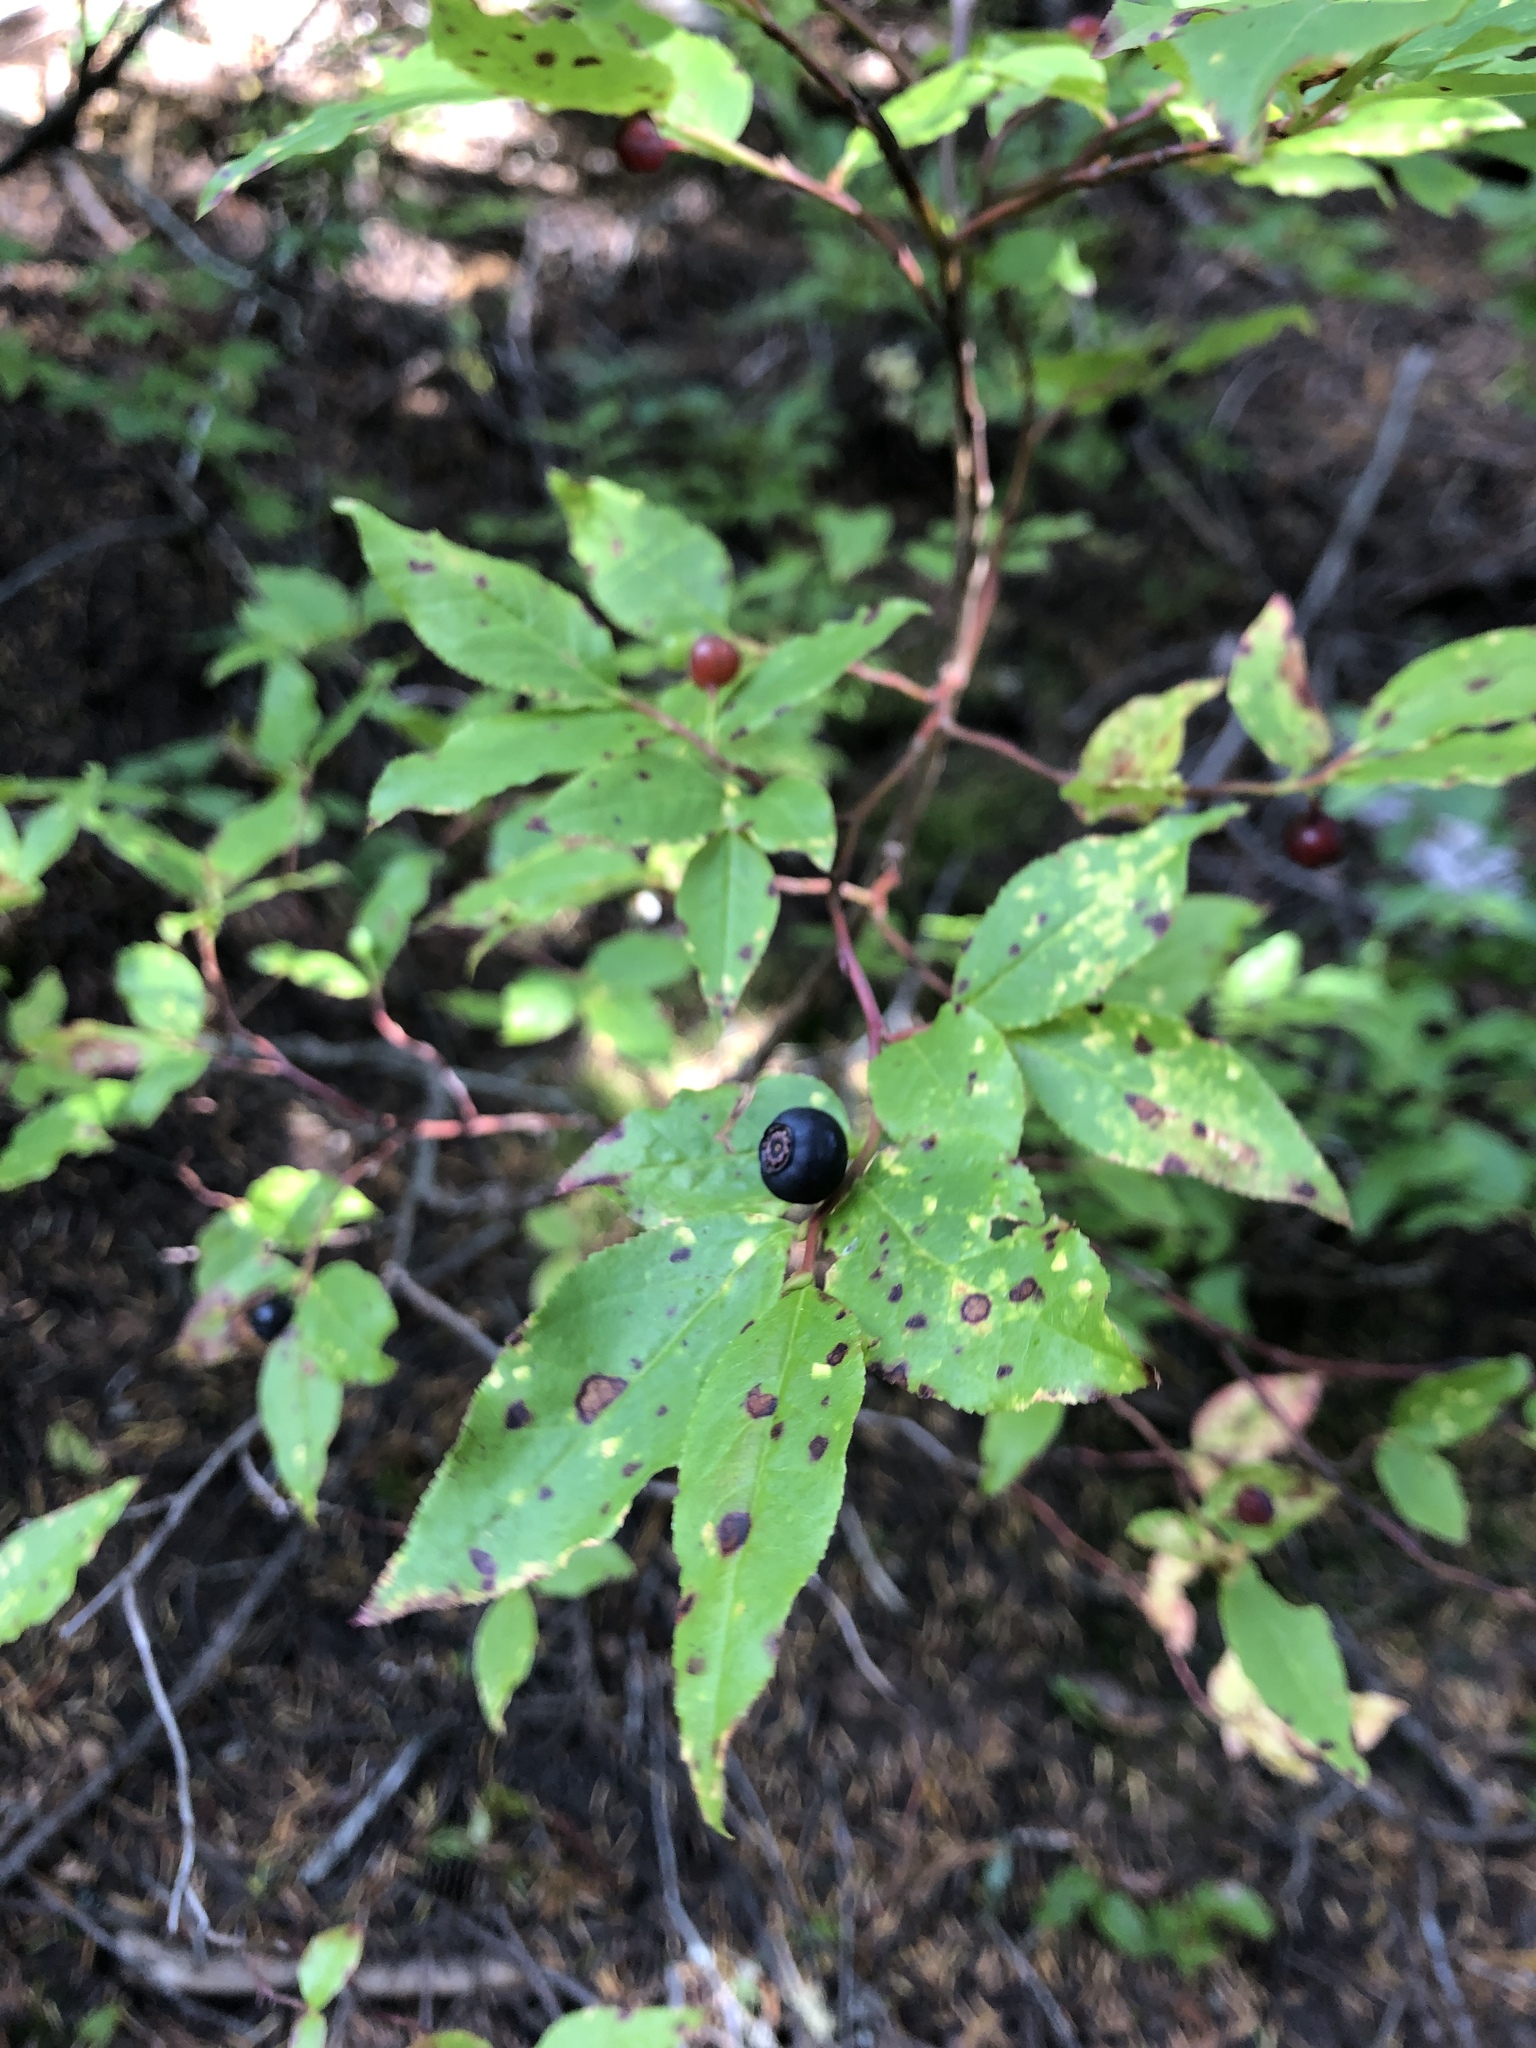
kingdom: Plantae
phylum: Tracheophyta
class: Magnoliopsida
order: Ericales
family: Ericaceae
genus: Vaccinium
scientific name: Vaccinium membranaceum
